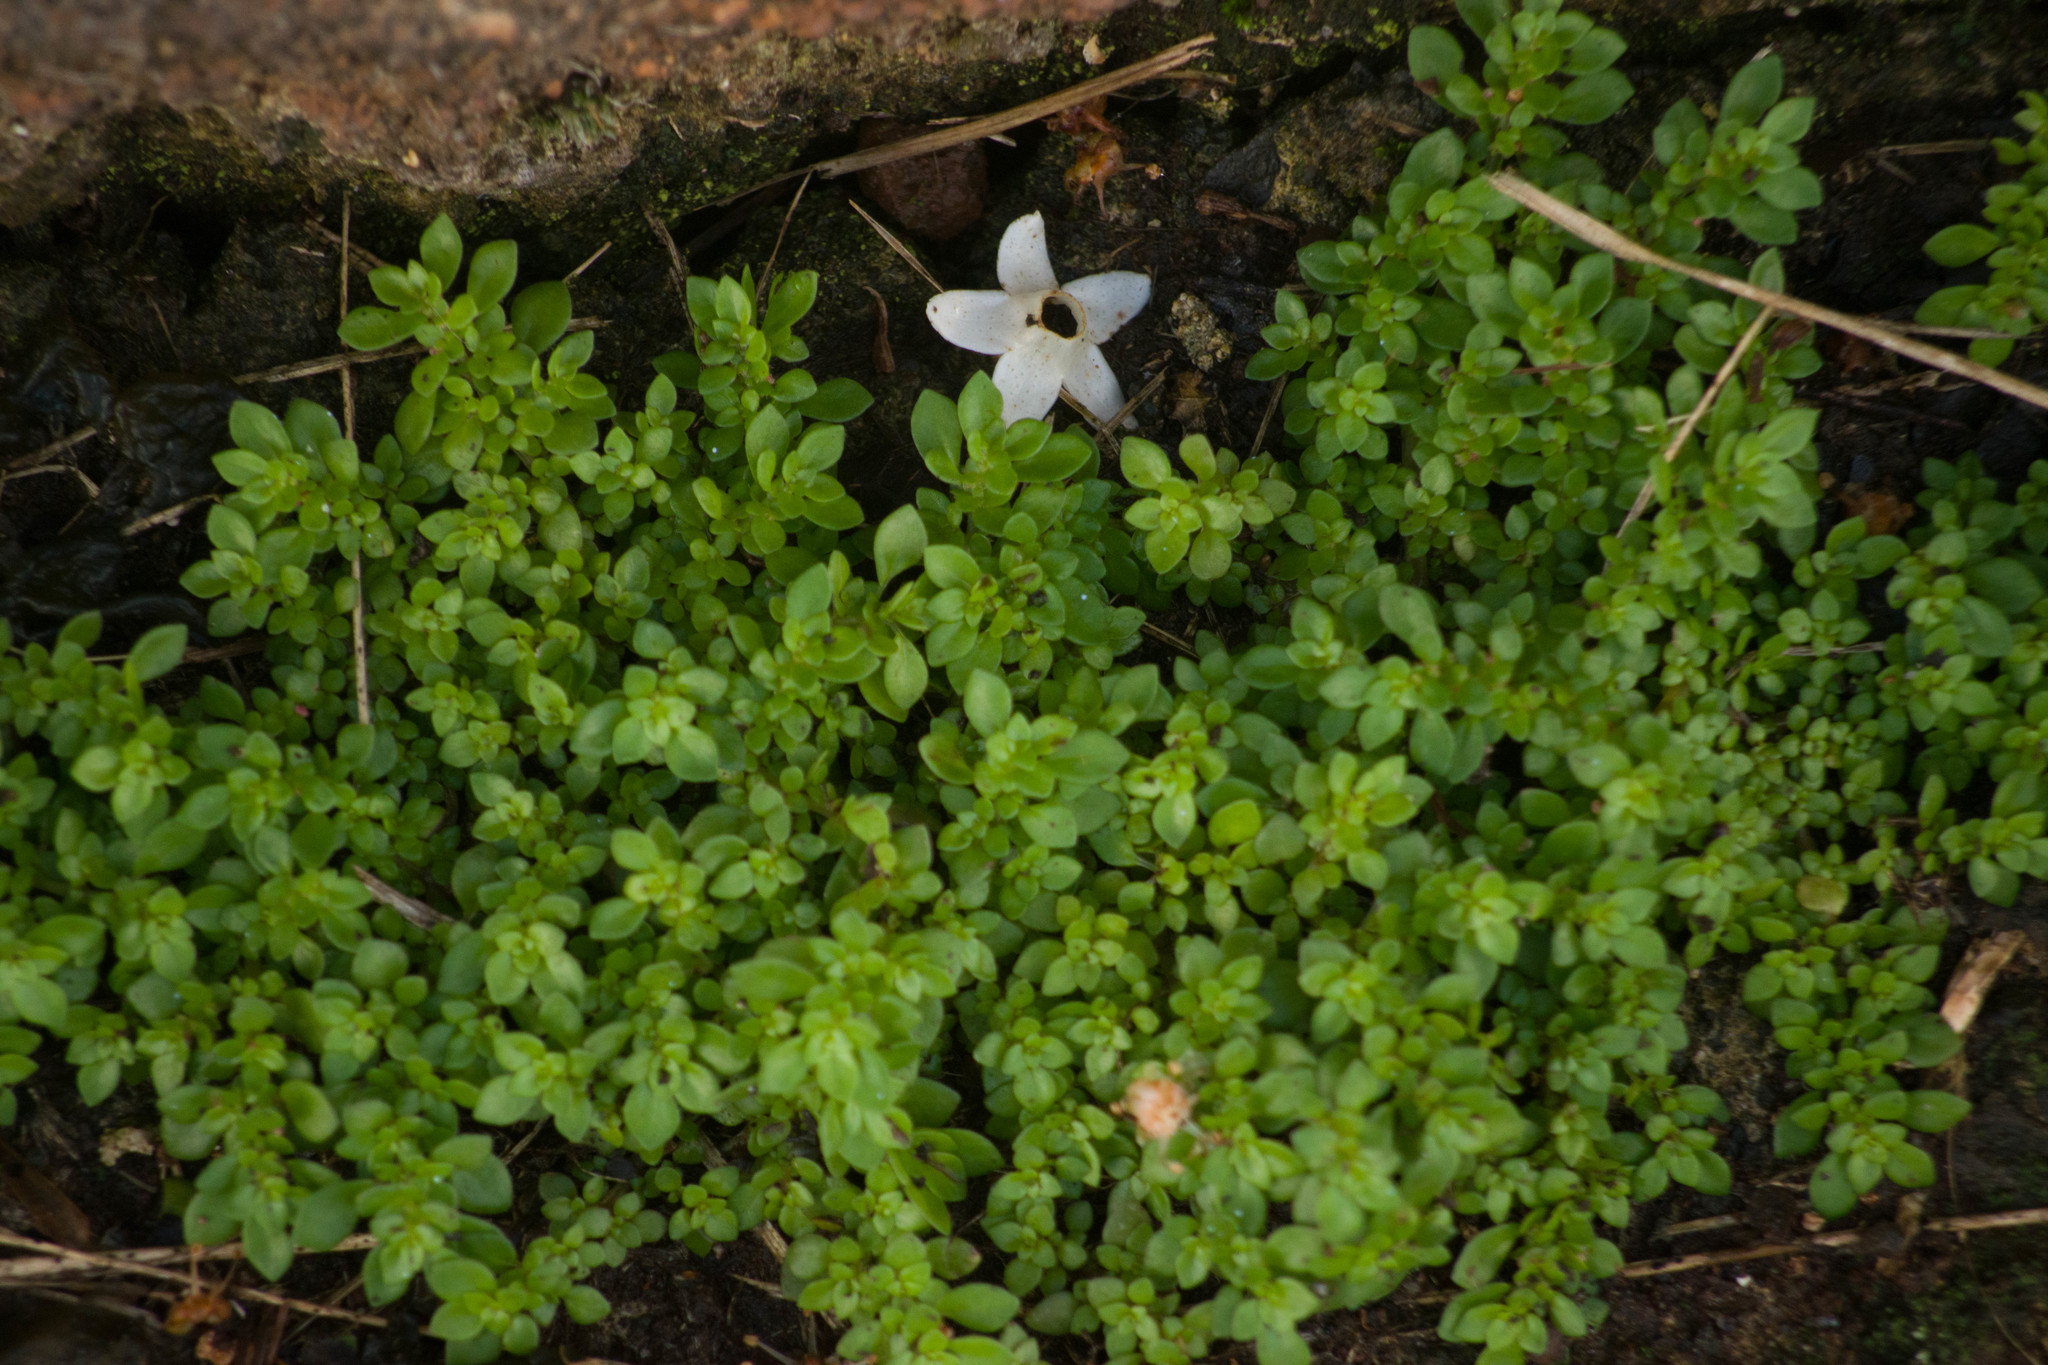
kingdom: Plantae
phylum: Tracheophyta
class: Magnoliopsida
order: Rosales
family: Urticaceae
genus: Pilea
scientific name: Pilea microphylla
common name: Artillery-plant
